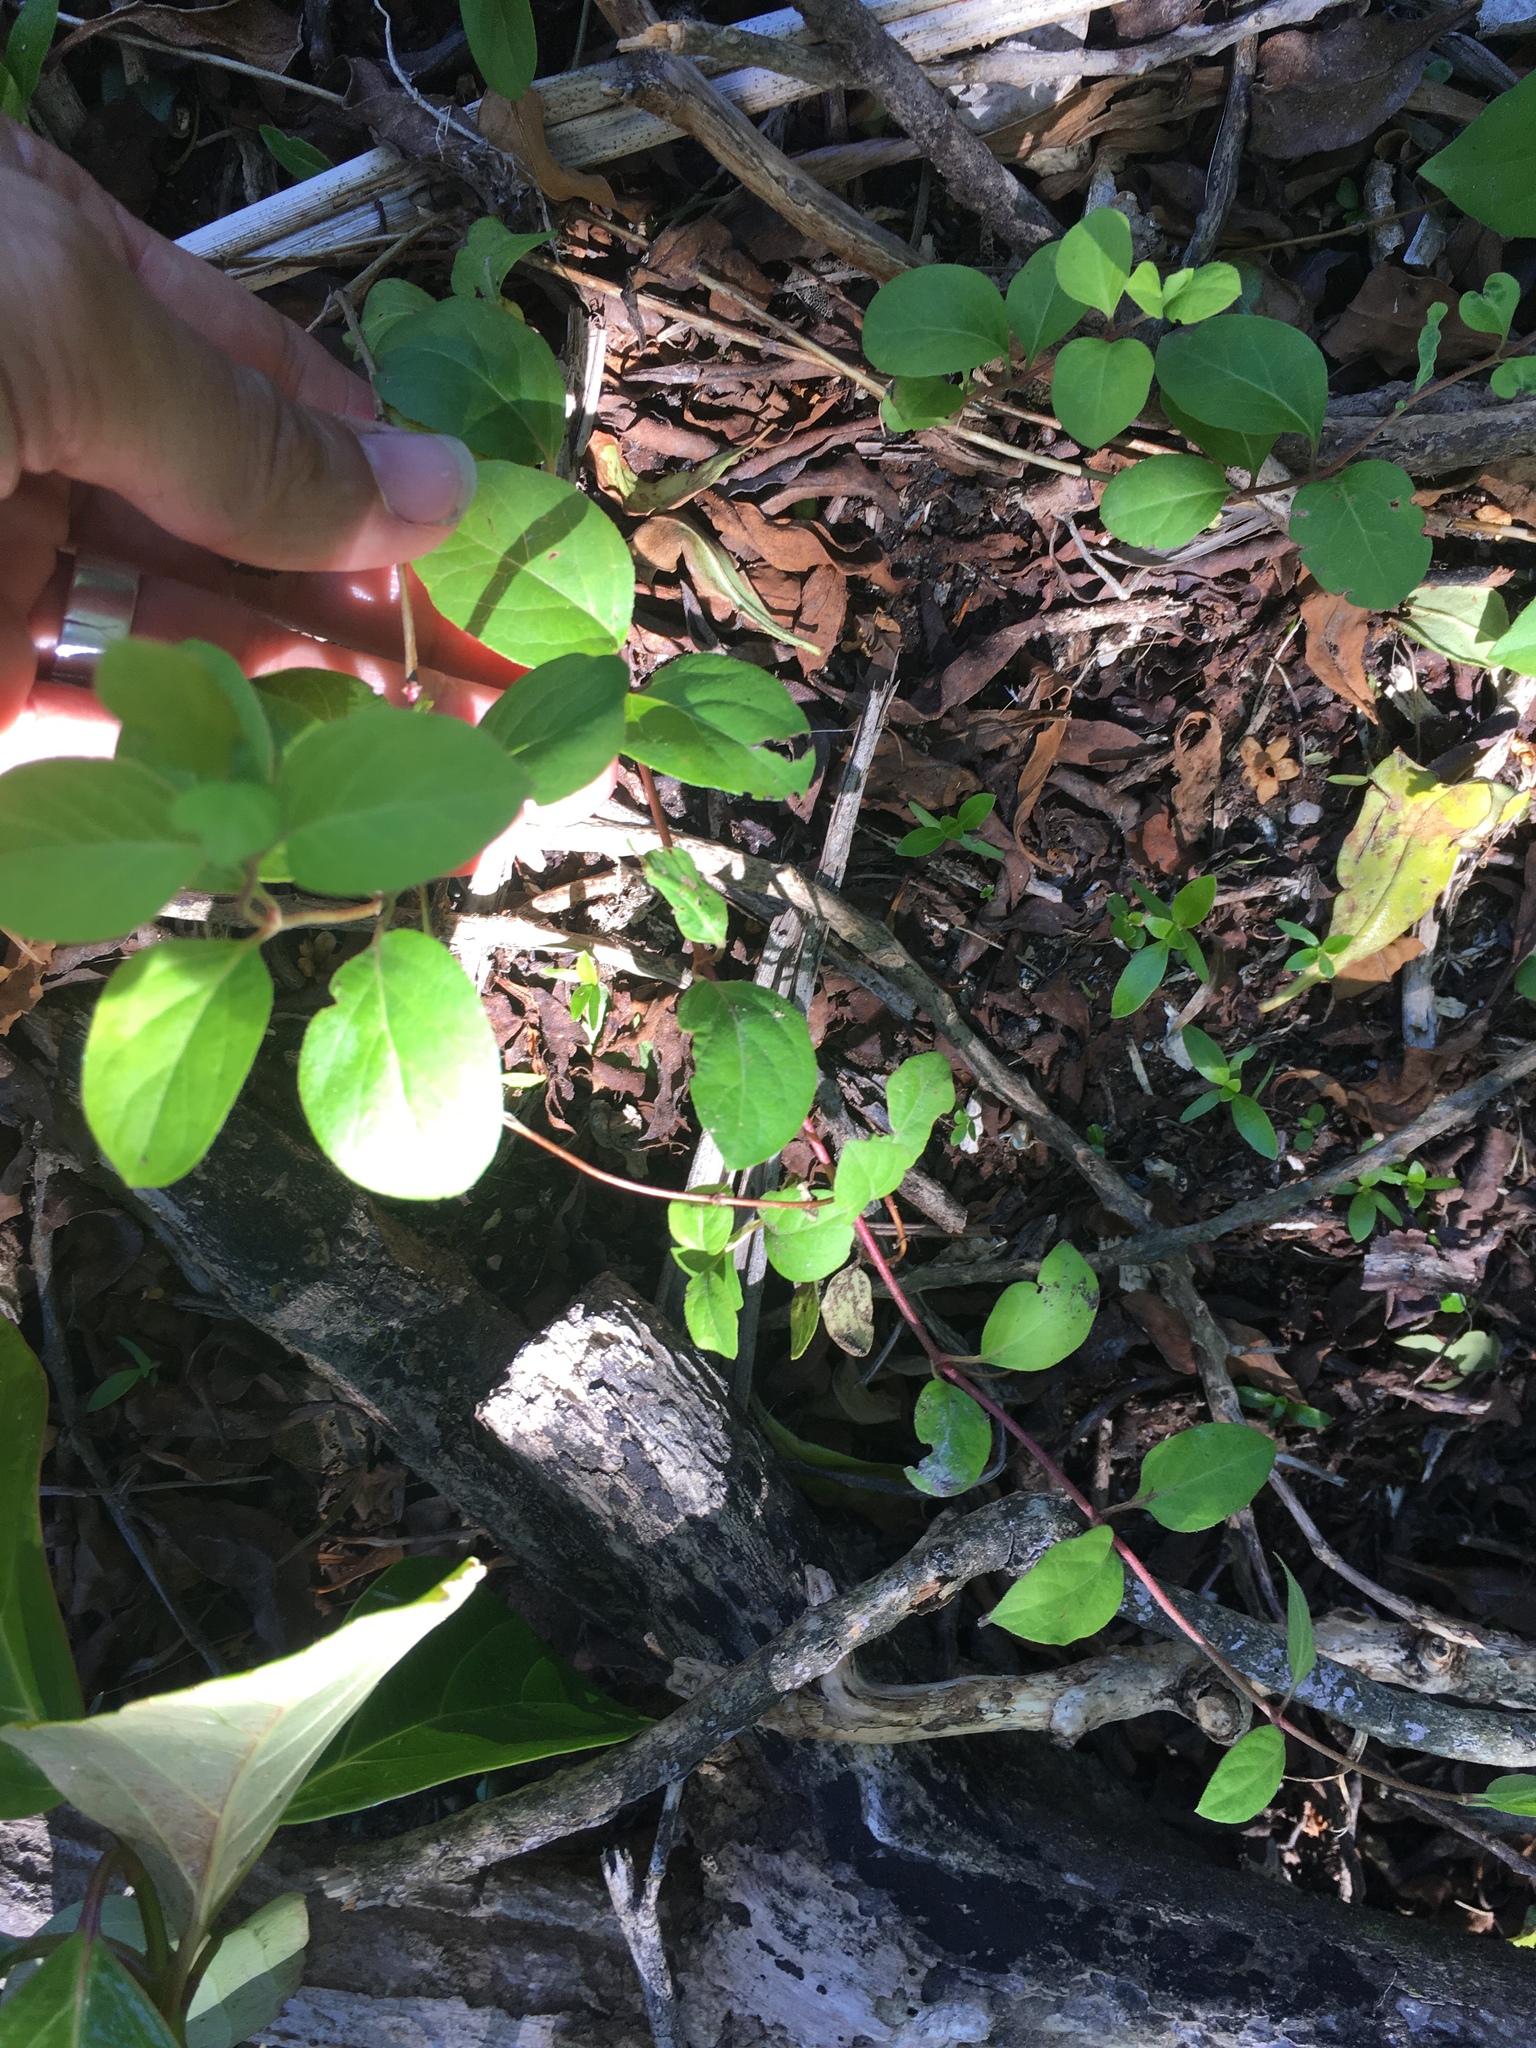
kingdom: Plantae
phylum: Tracheophyta
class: Magnoliopsida
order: Dipsacales
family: Caprifoliaceae
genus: Lonicera
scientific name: Lonicera japonica
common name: Japanese honeysuckle
